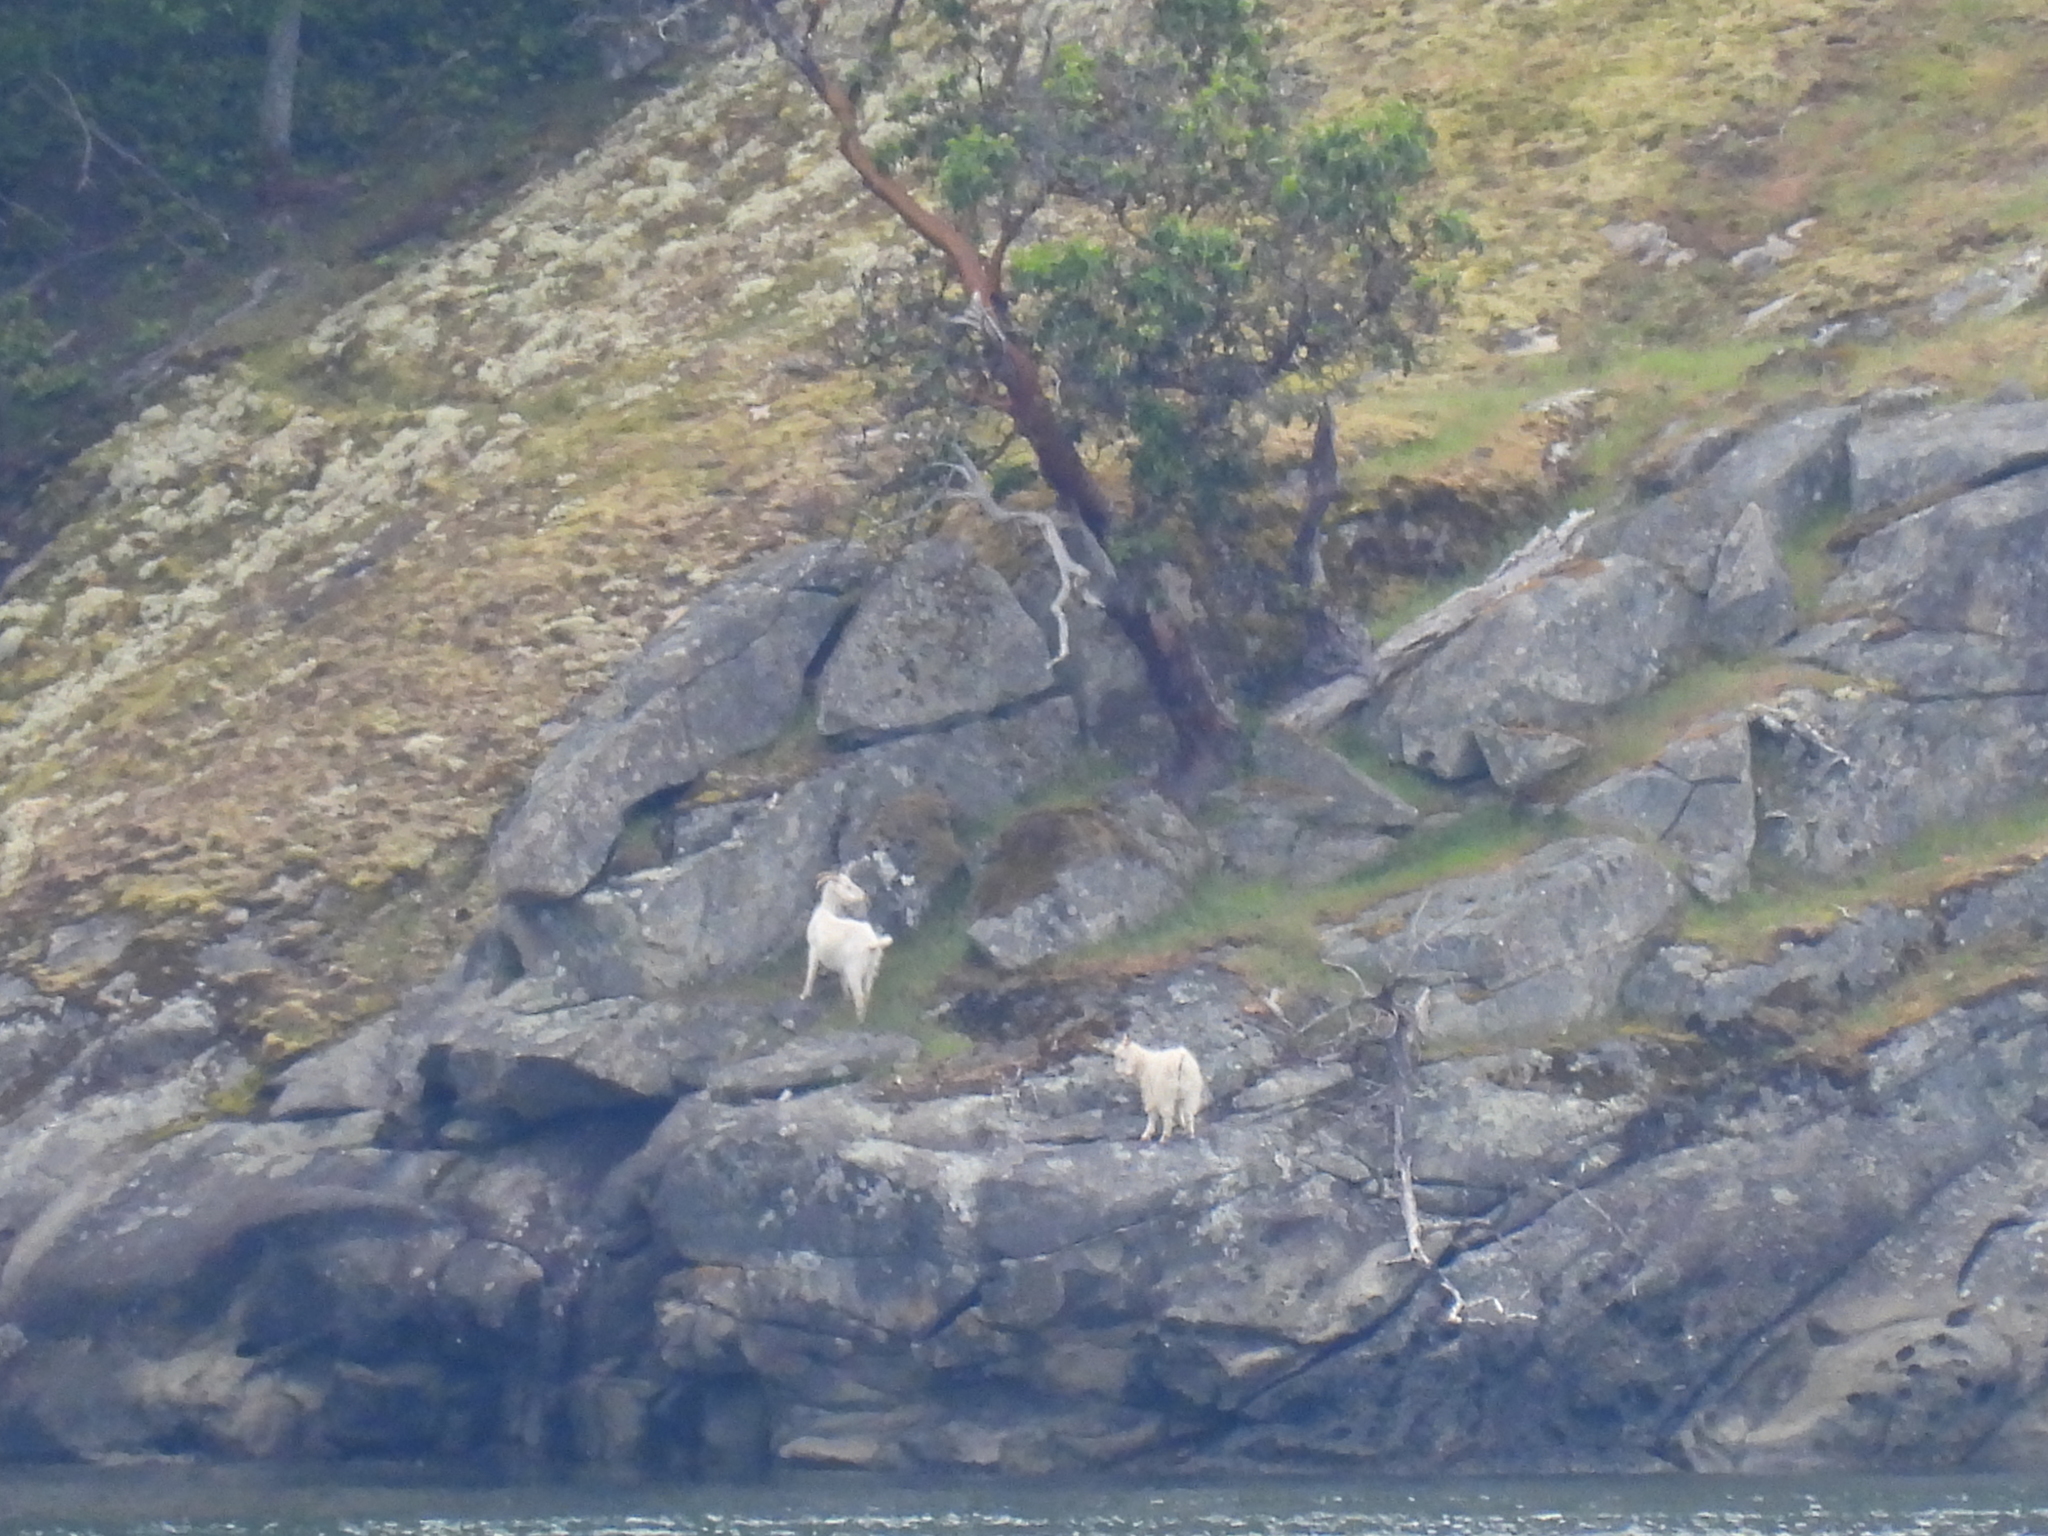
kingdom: Animalia
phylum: Chordata
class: Mammalia
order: Artiodactyla
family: Bovidae
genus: Capra
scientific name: Capra hircus
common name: Domestic goat
